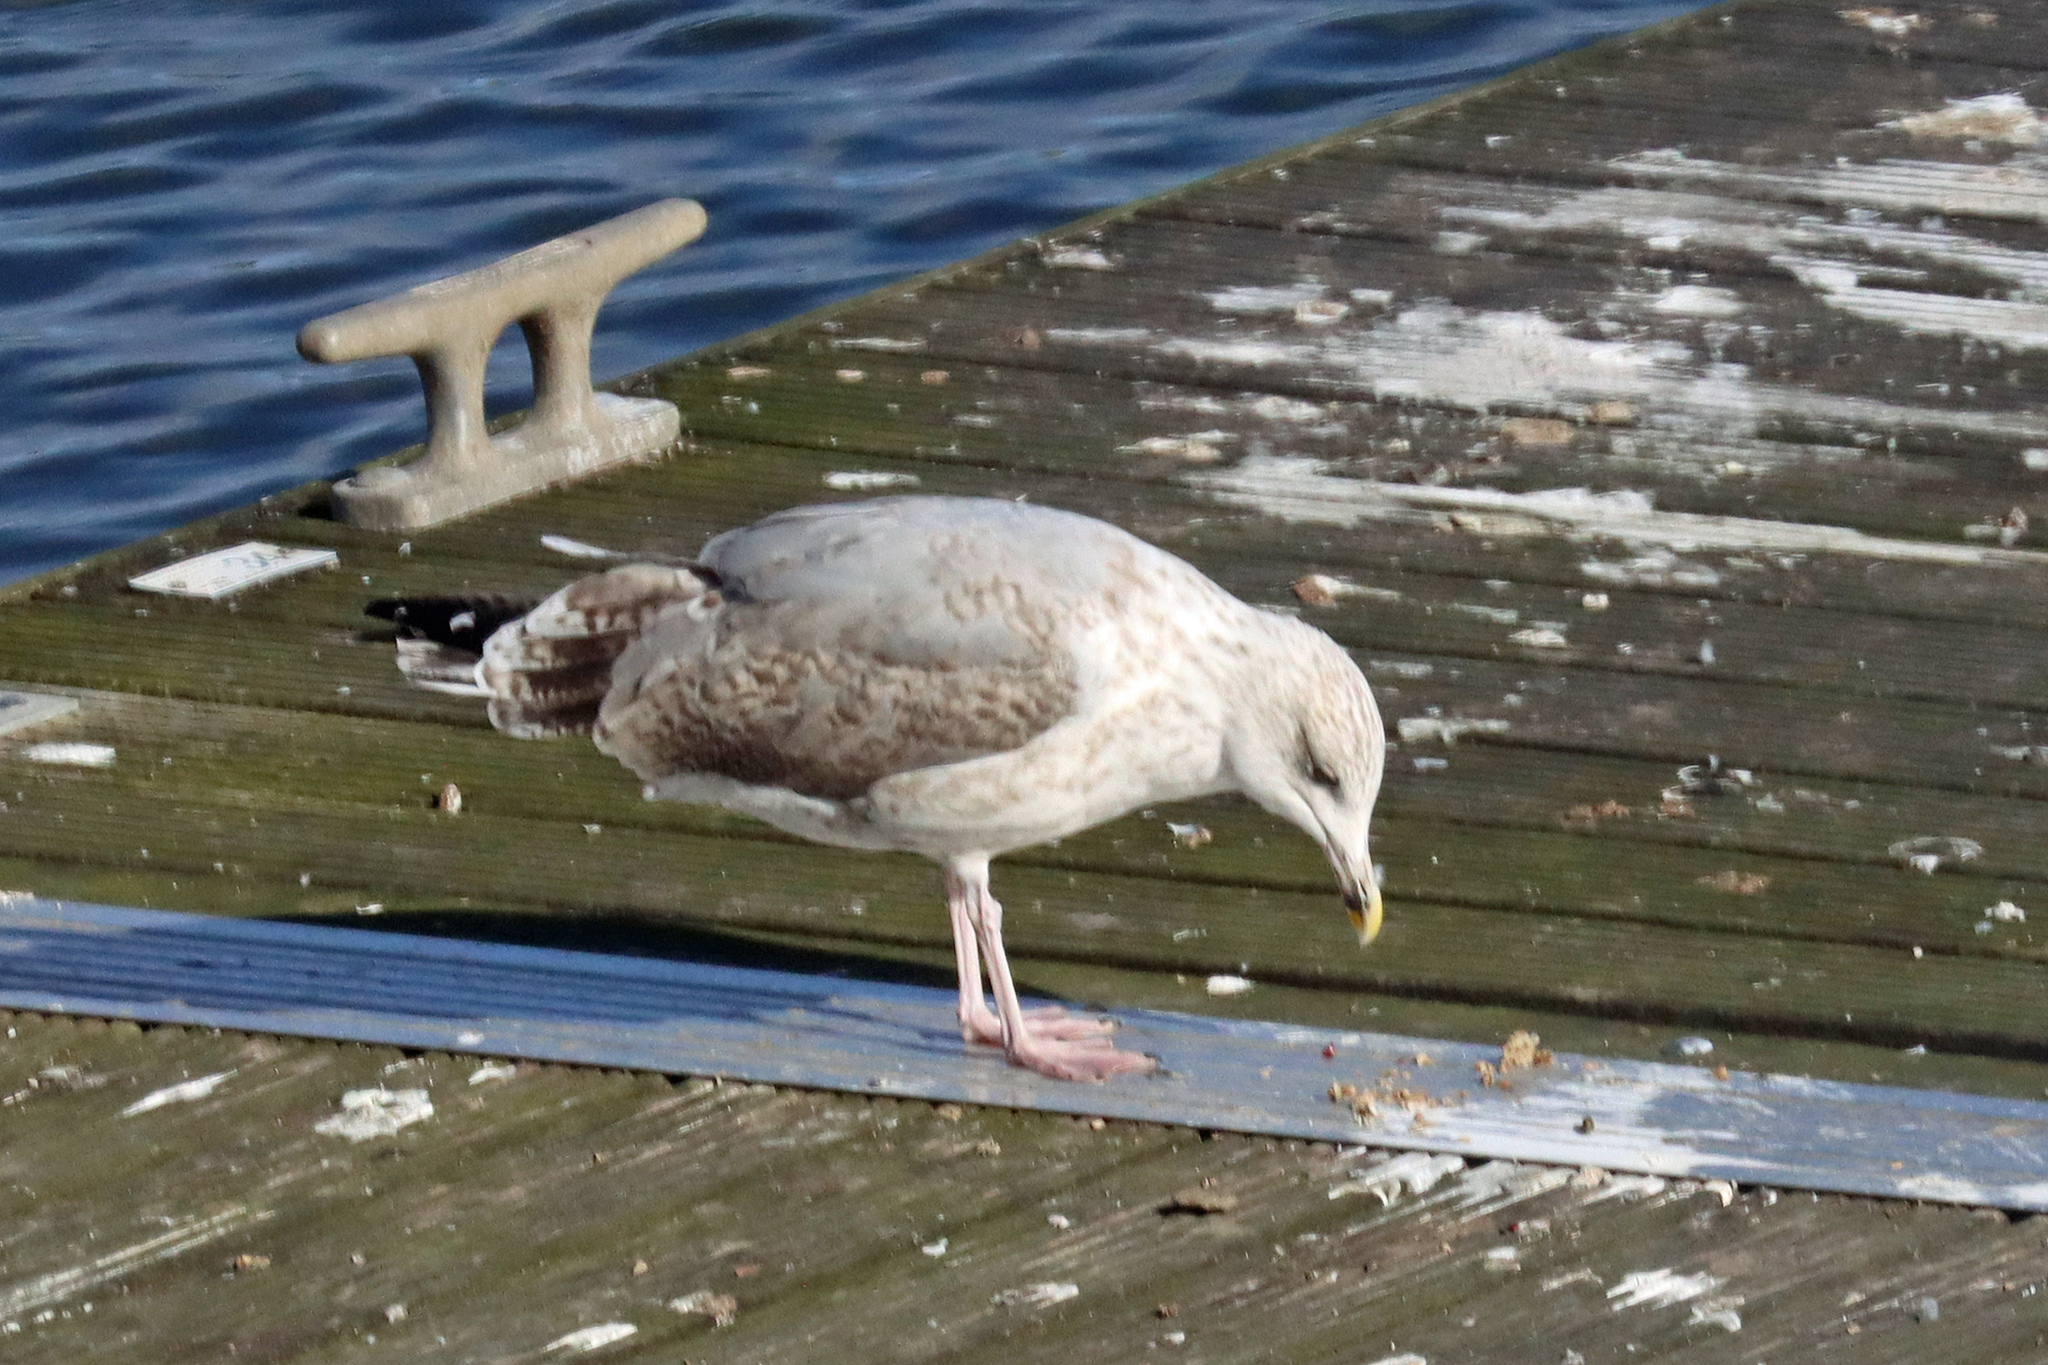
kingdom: Animalia
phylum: Chordata
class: Aves
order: Charadriiformes
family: Laridae
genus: Larus
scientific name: Larus argentatus
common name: Herring gull
